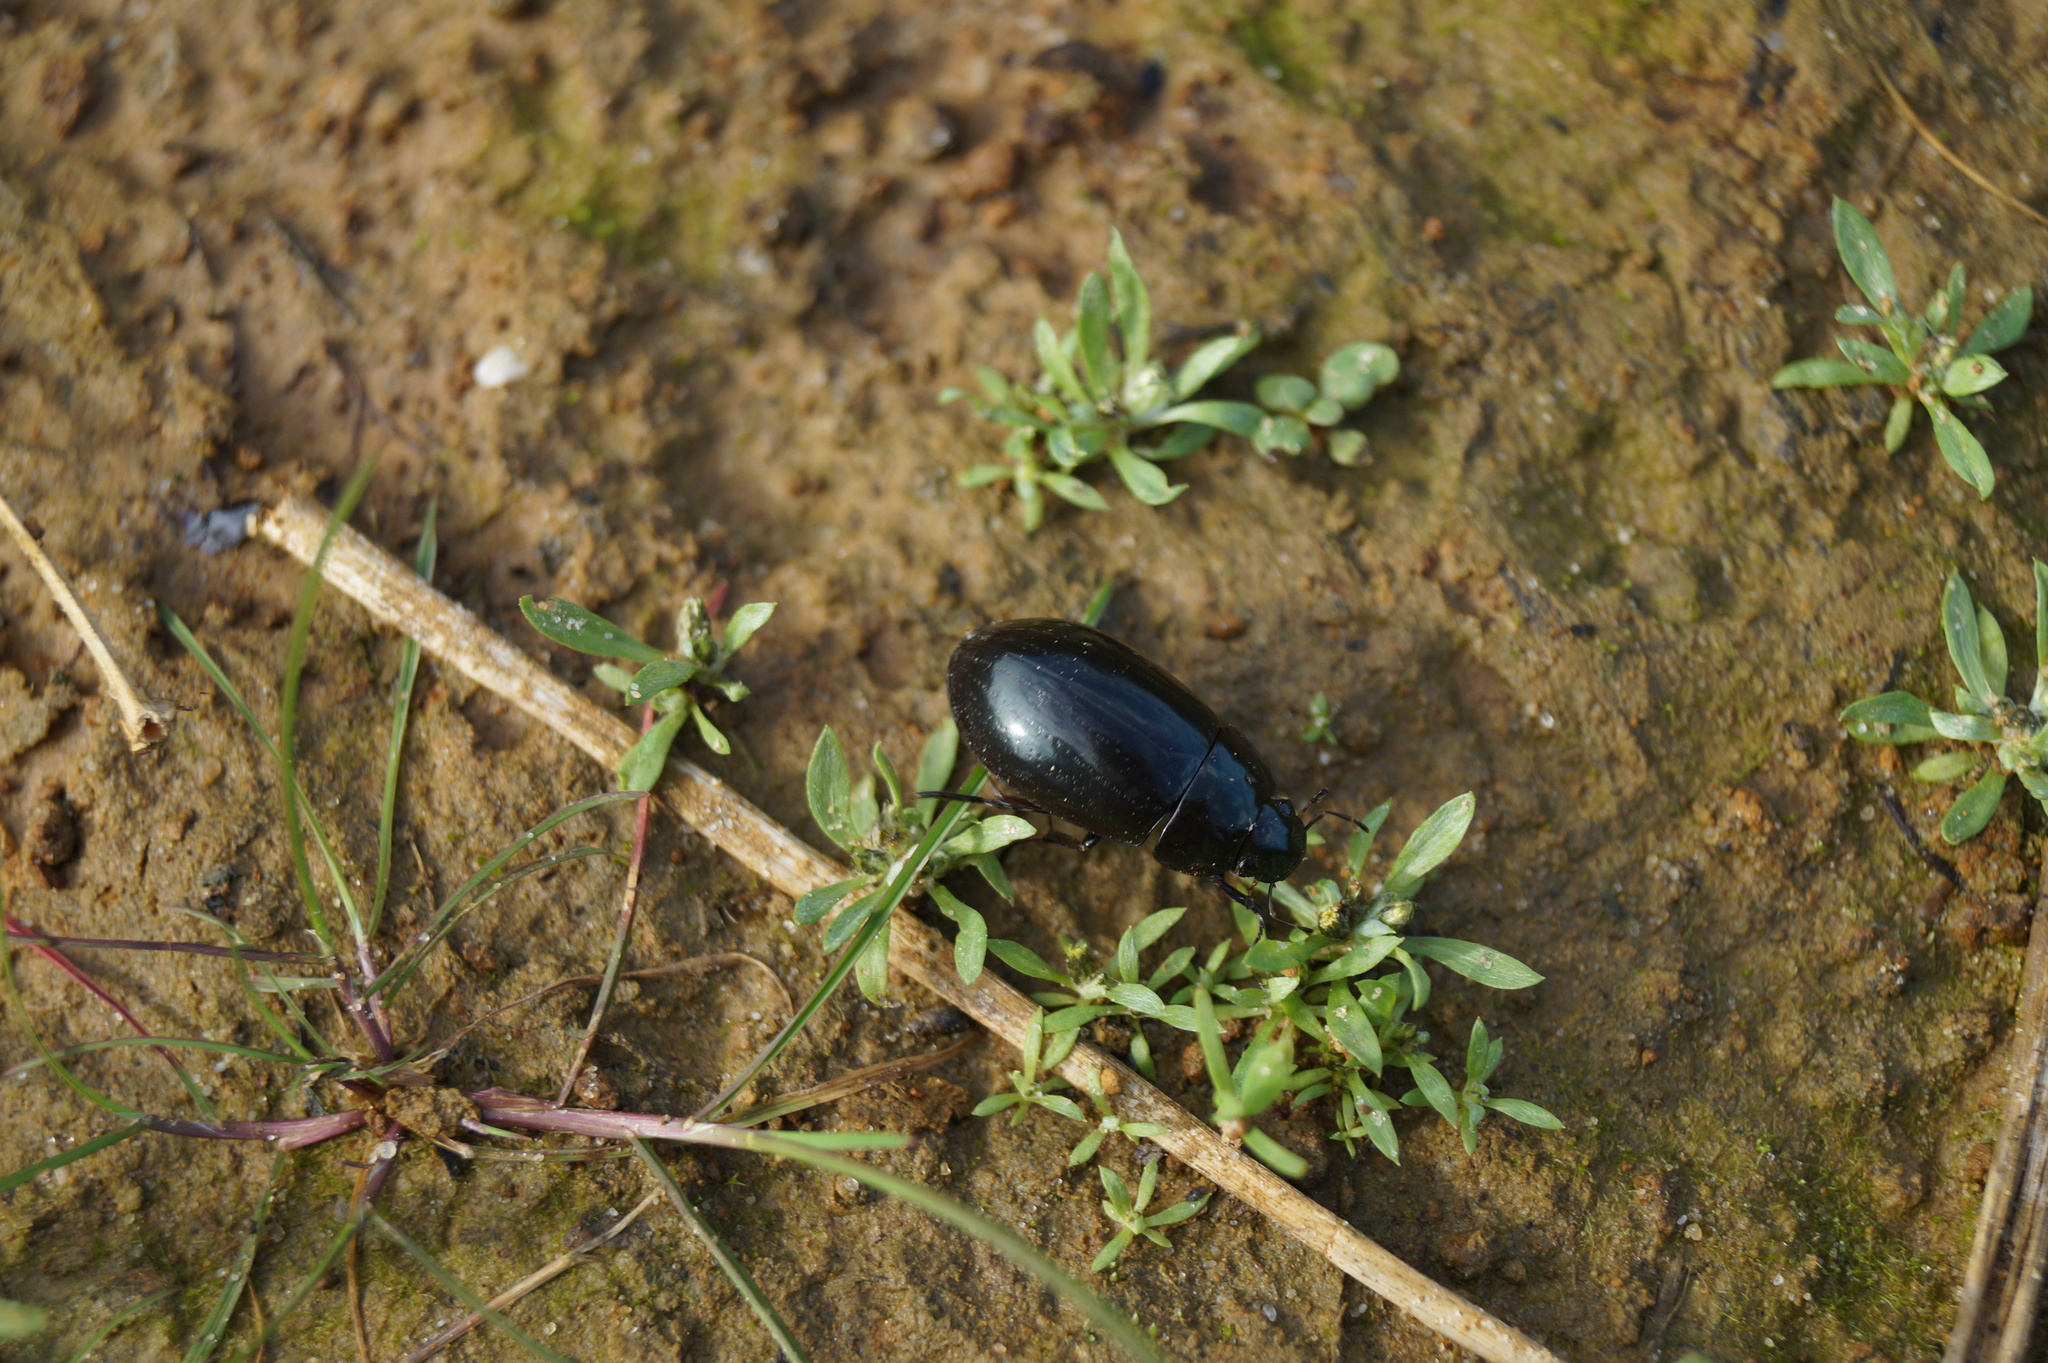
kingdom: Animalia
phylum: Arthropoda
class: Insecta
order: Coleoptera
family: Hydrophilidae
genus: Hydrochara
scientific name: Hydrochara caraboides
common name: Lesser silver water beetle
